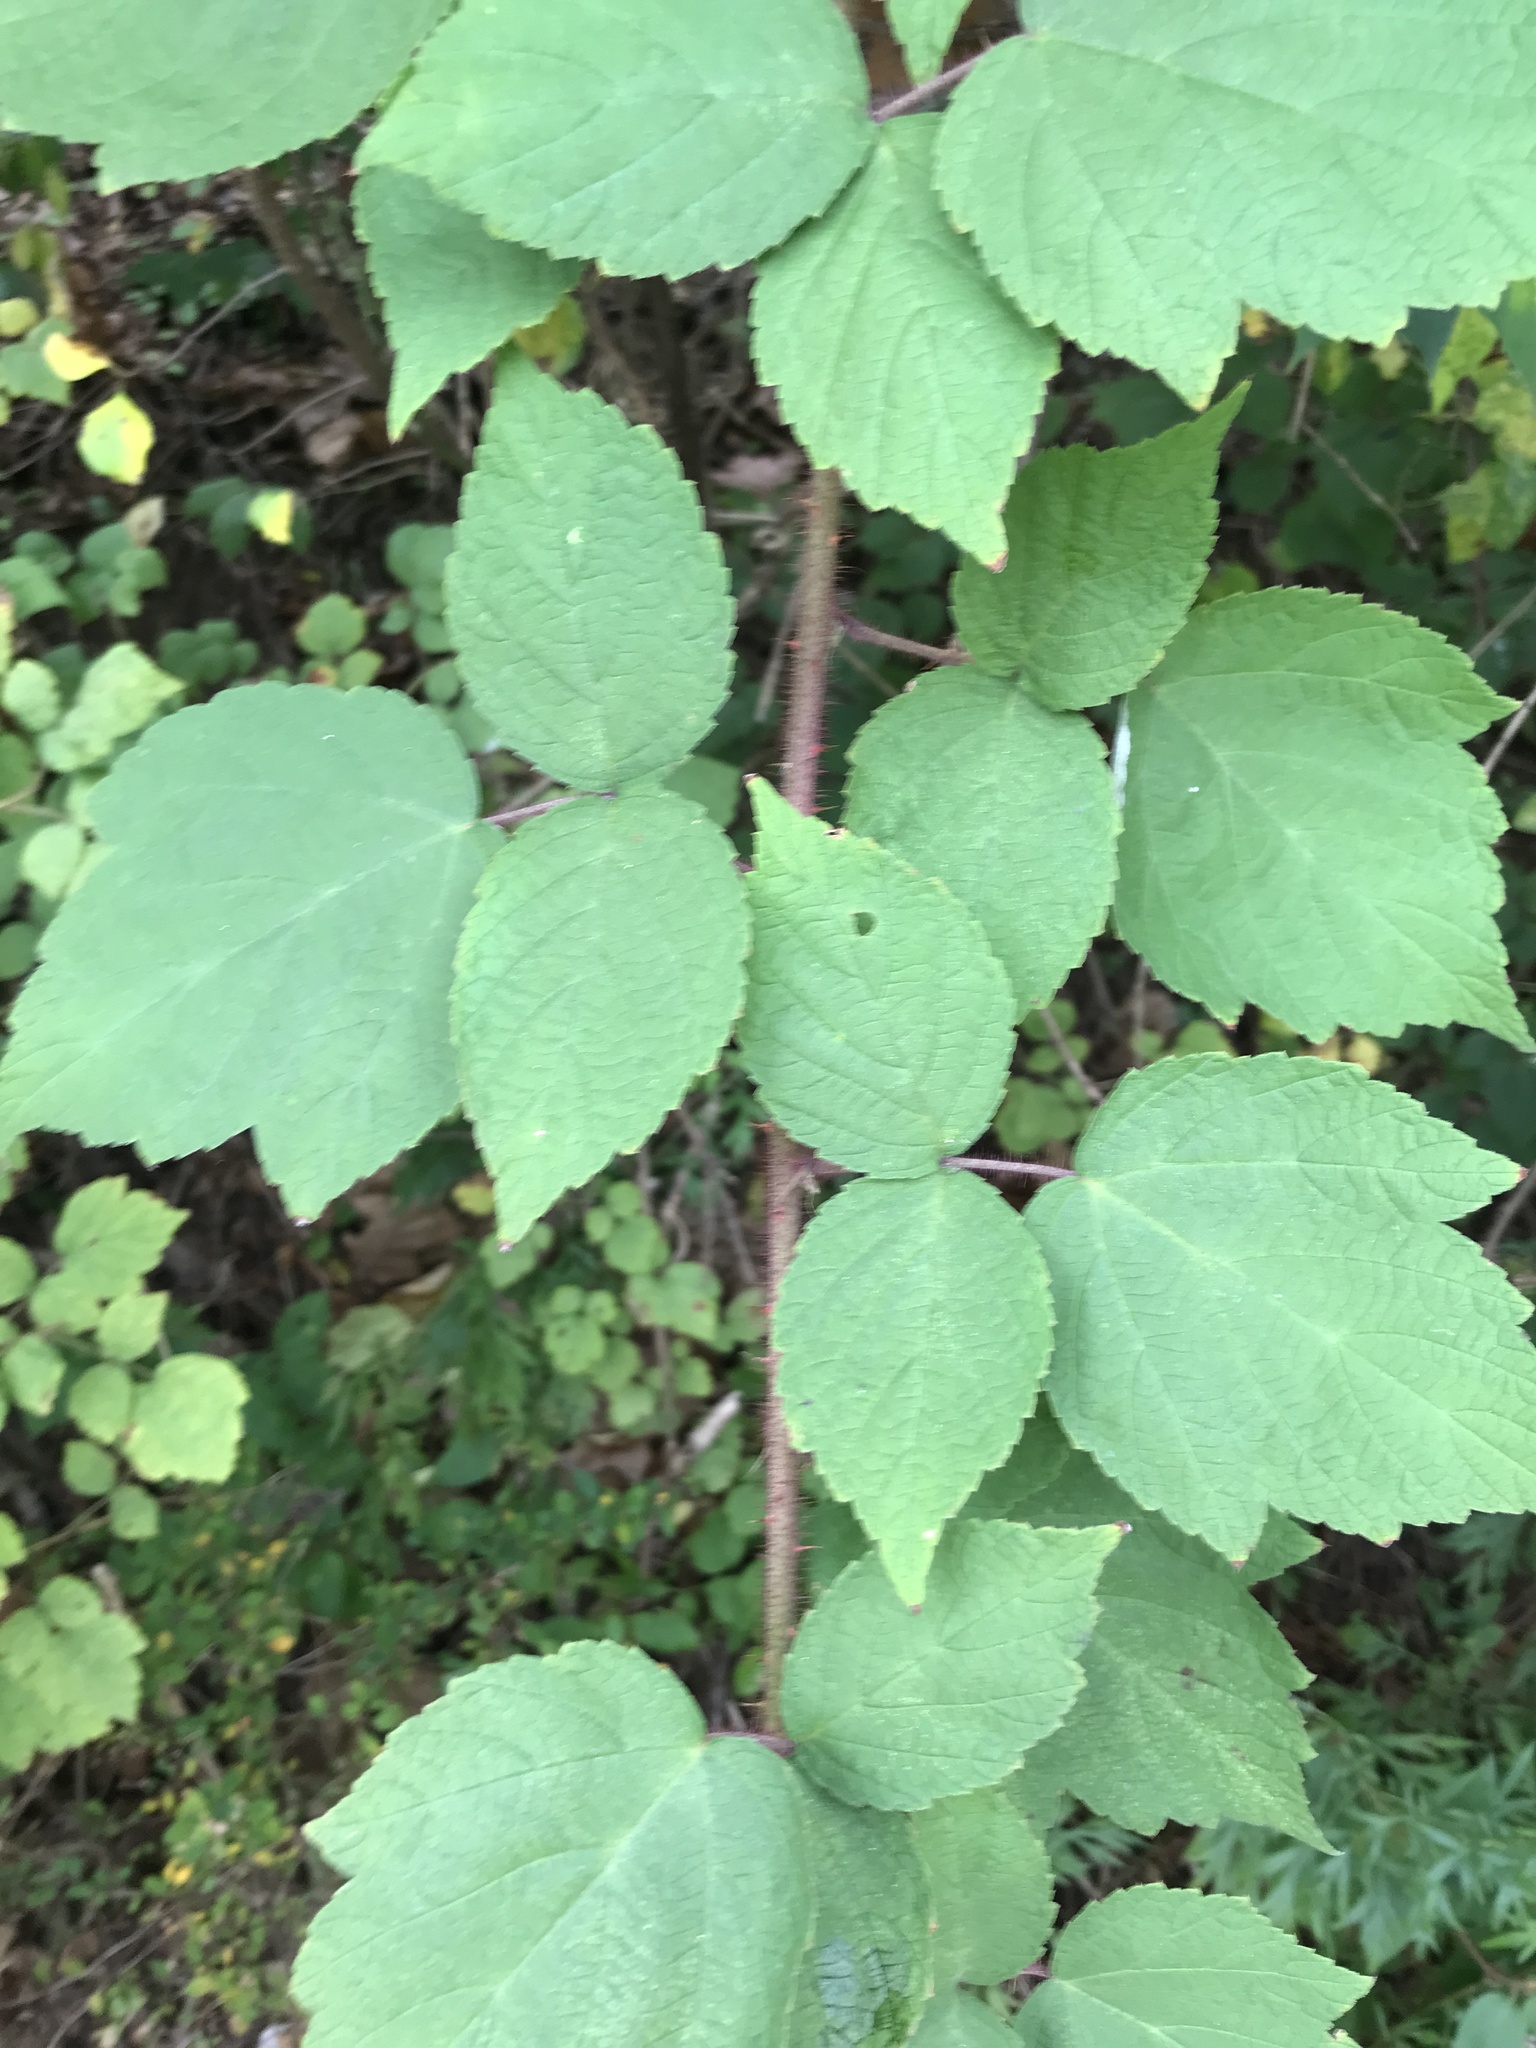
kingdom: Plantae
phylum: Tracheophyta
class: Magnoliopsida
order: Rosales
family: Rosaceae
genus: Rubus
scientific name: Rubus phoenicolasius
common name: Japanese wineberry
